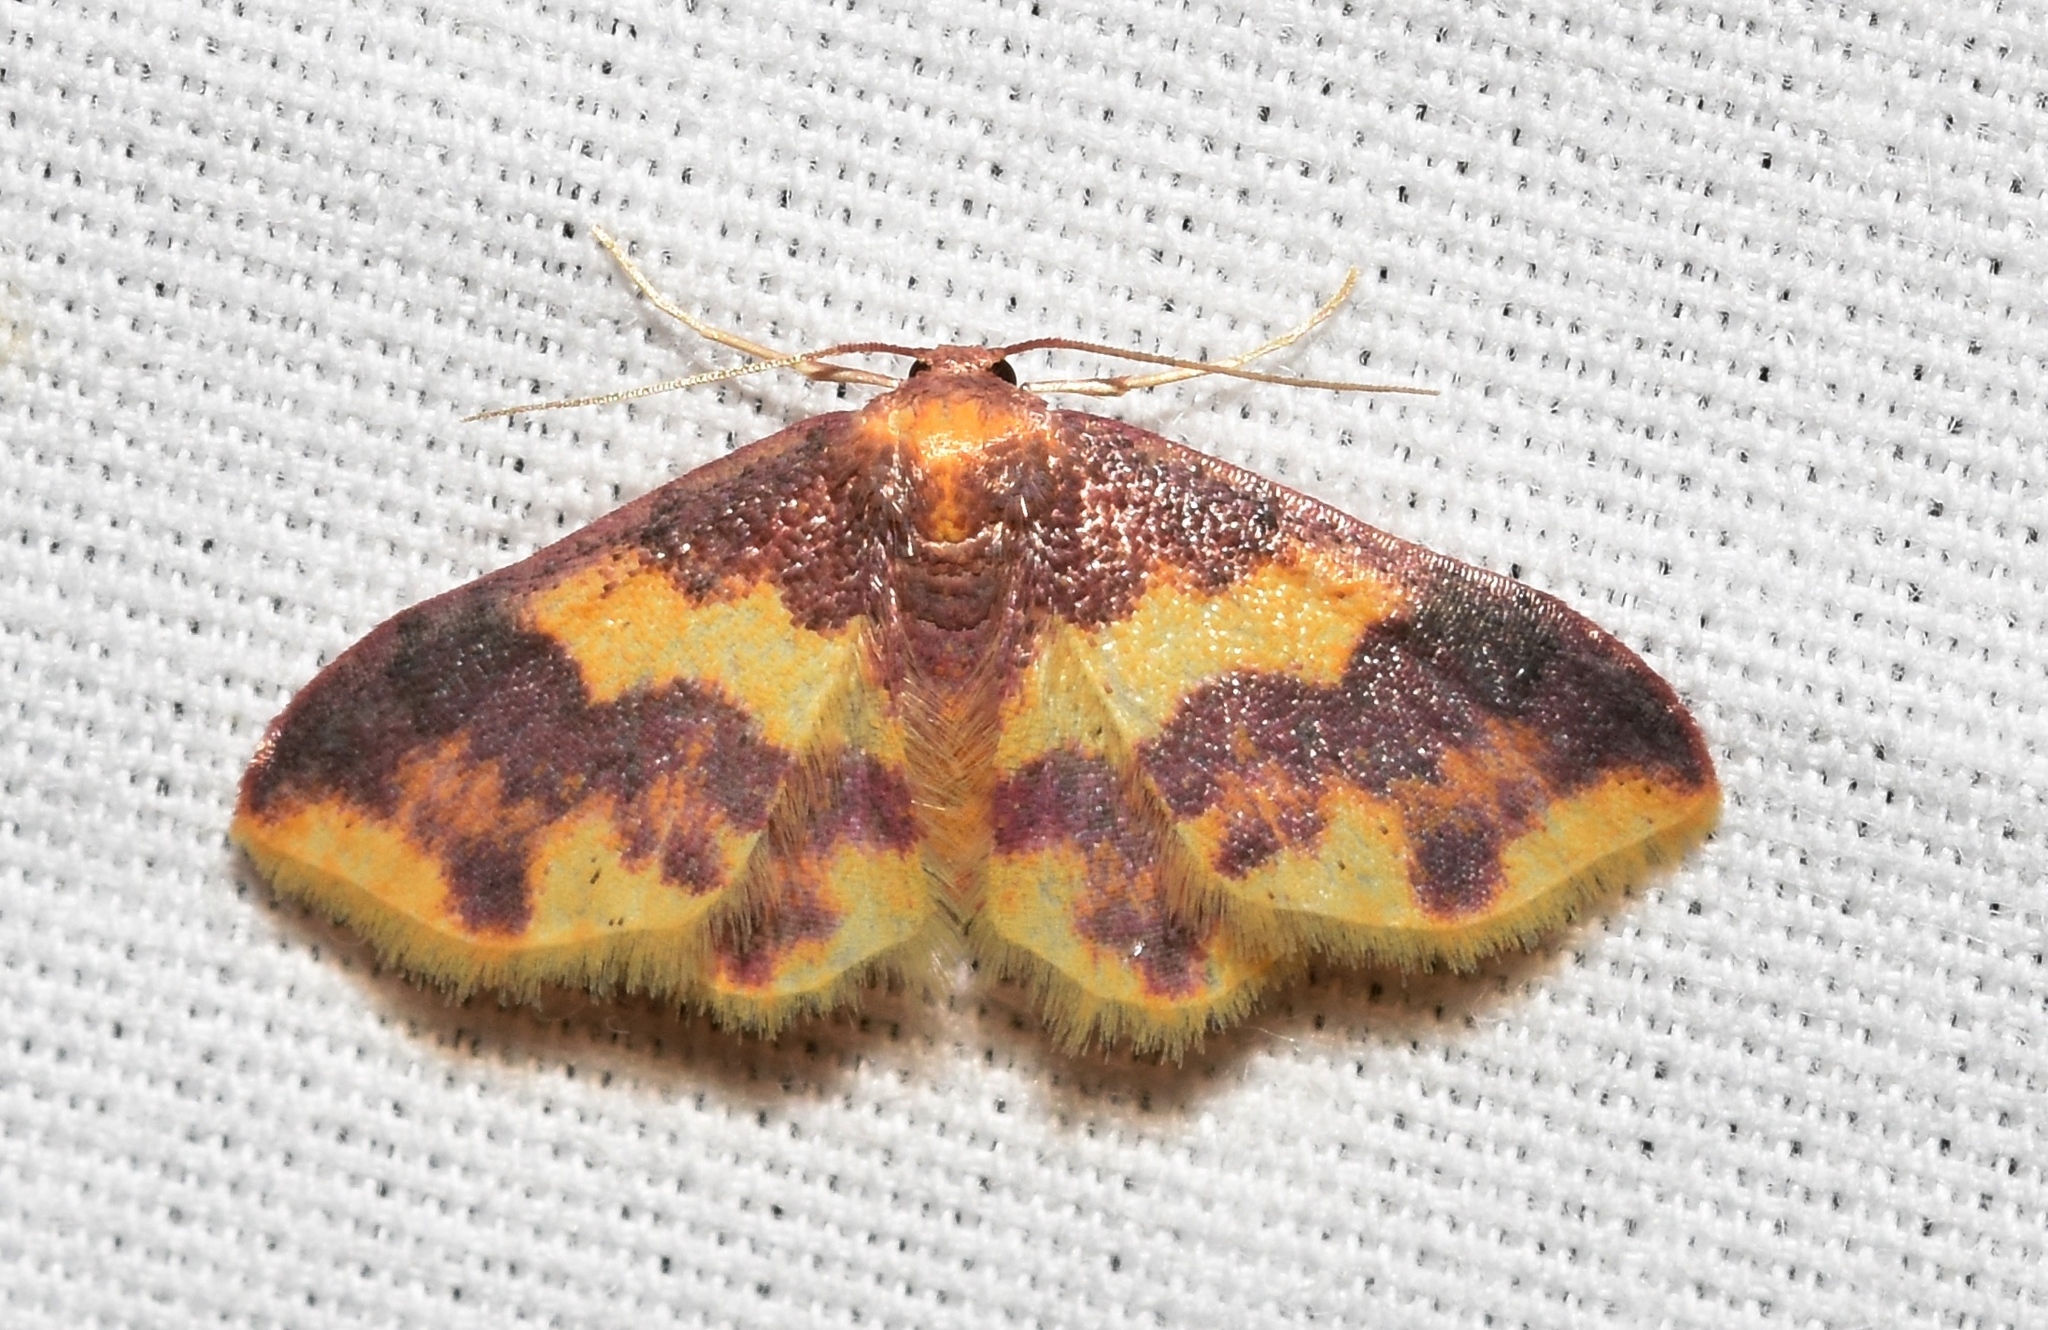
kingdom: Animalia
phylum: Arthropoda
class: Insecta
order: Lepidoptera
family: Geometridae
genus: Lophosis
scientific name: Lophosis labeculata
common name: Stained lophosis moth
